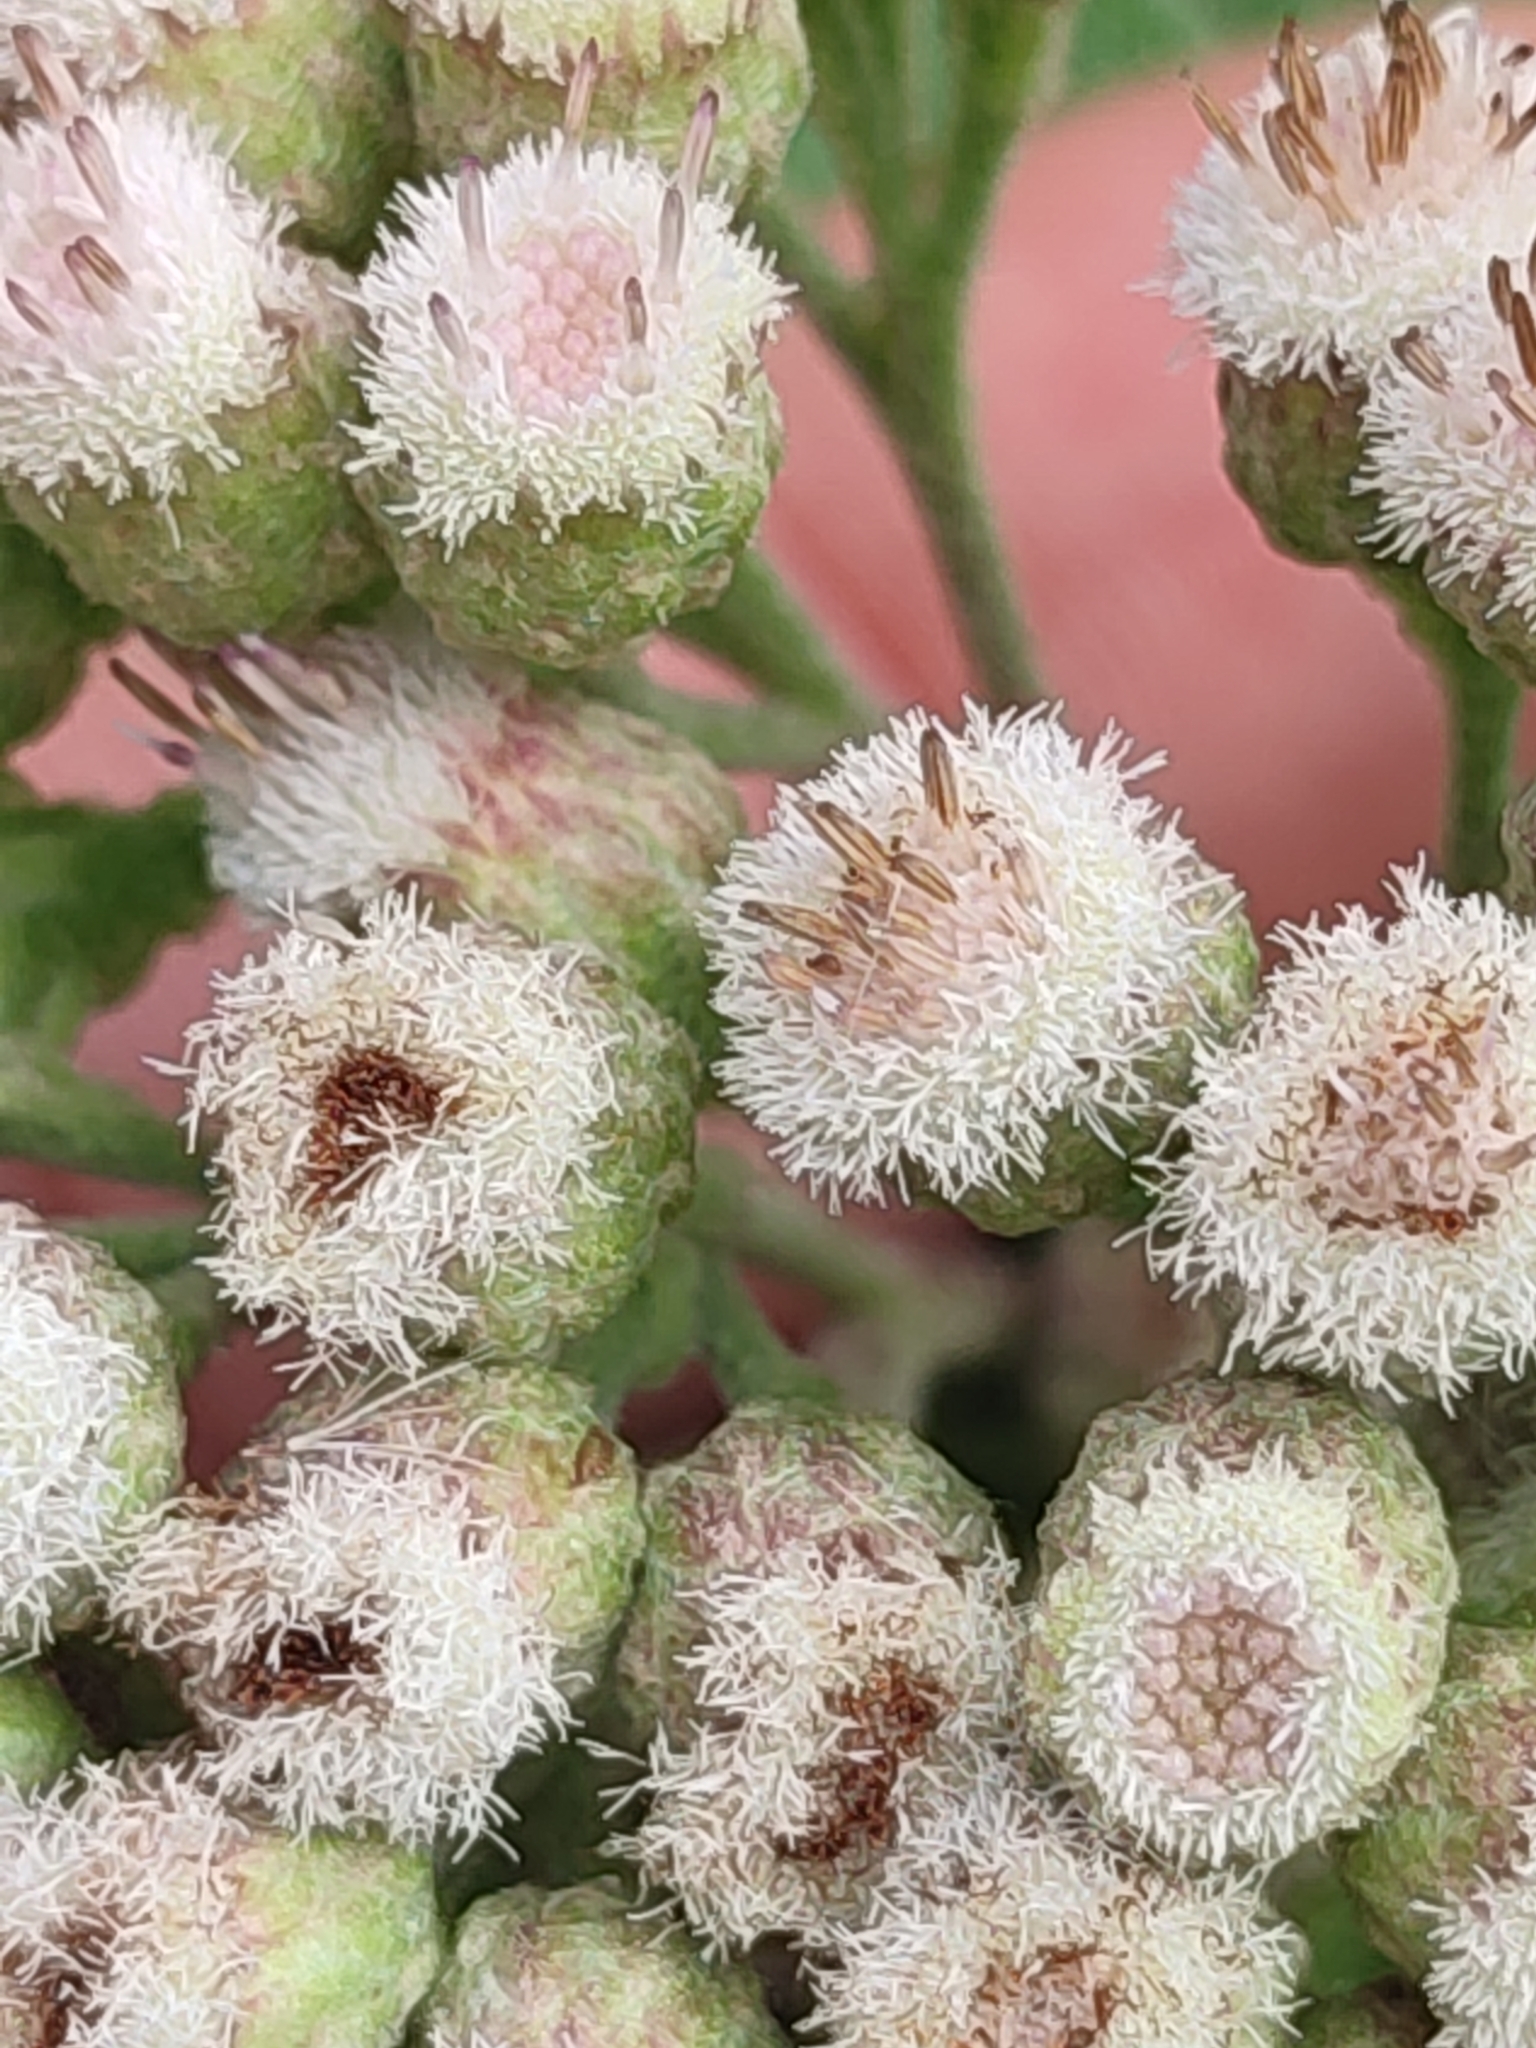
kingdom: Plantae
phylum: Tracheophyta
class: Magnoliopsida
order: Asterales
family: Asteraceae
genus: Pluchea
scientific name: Pluchea carolinensis
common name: Marsh fleabane
